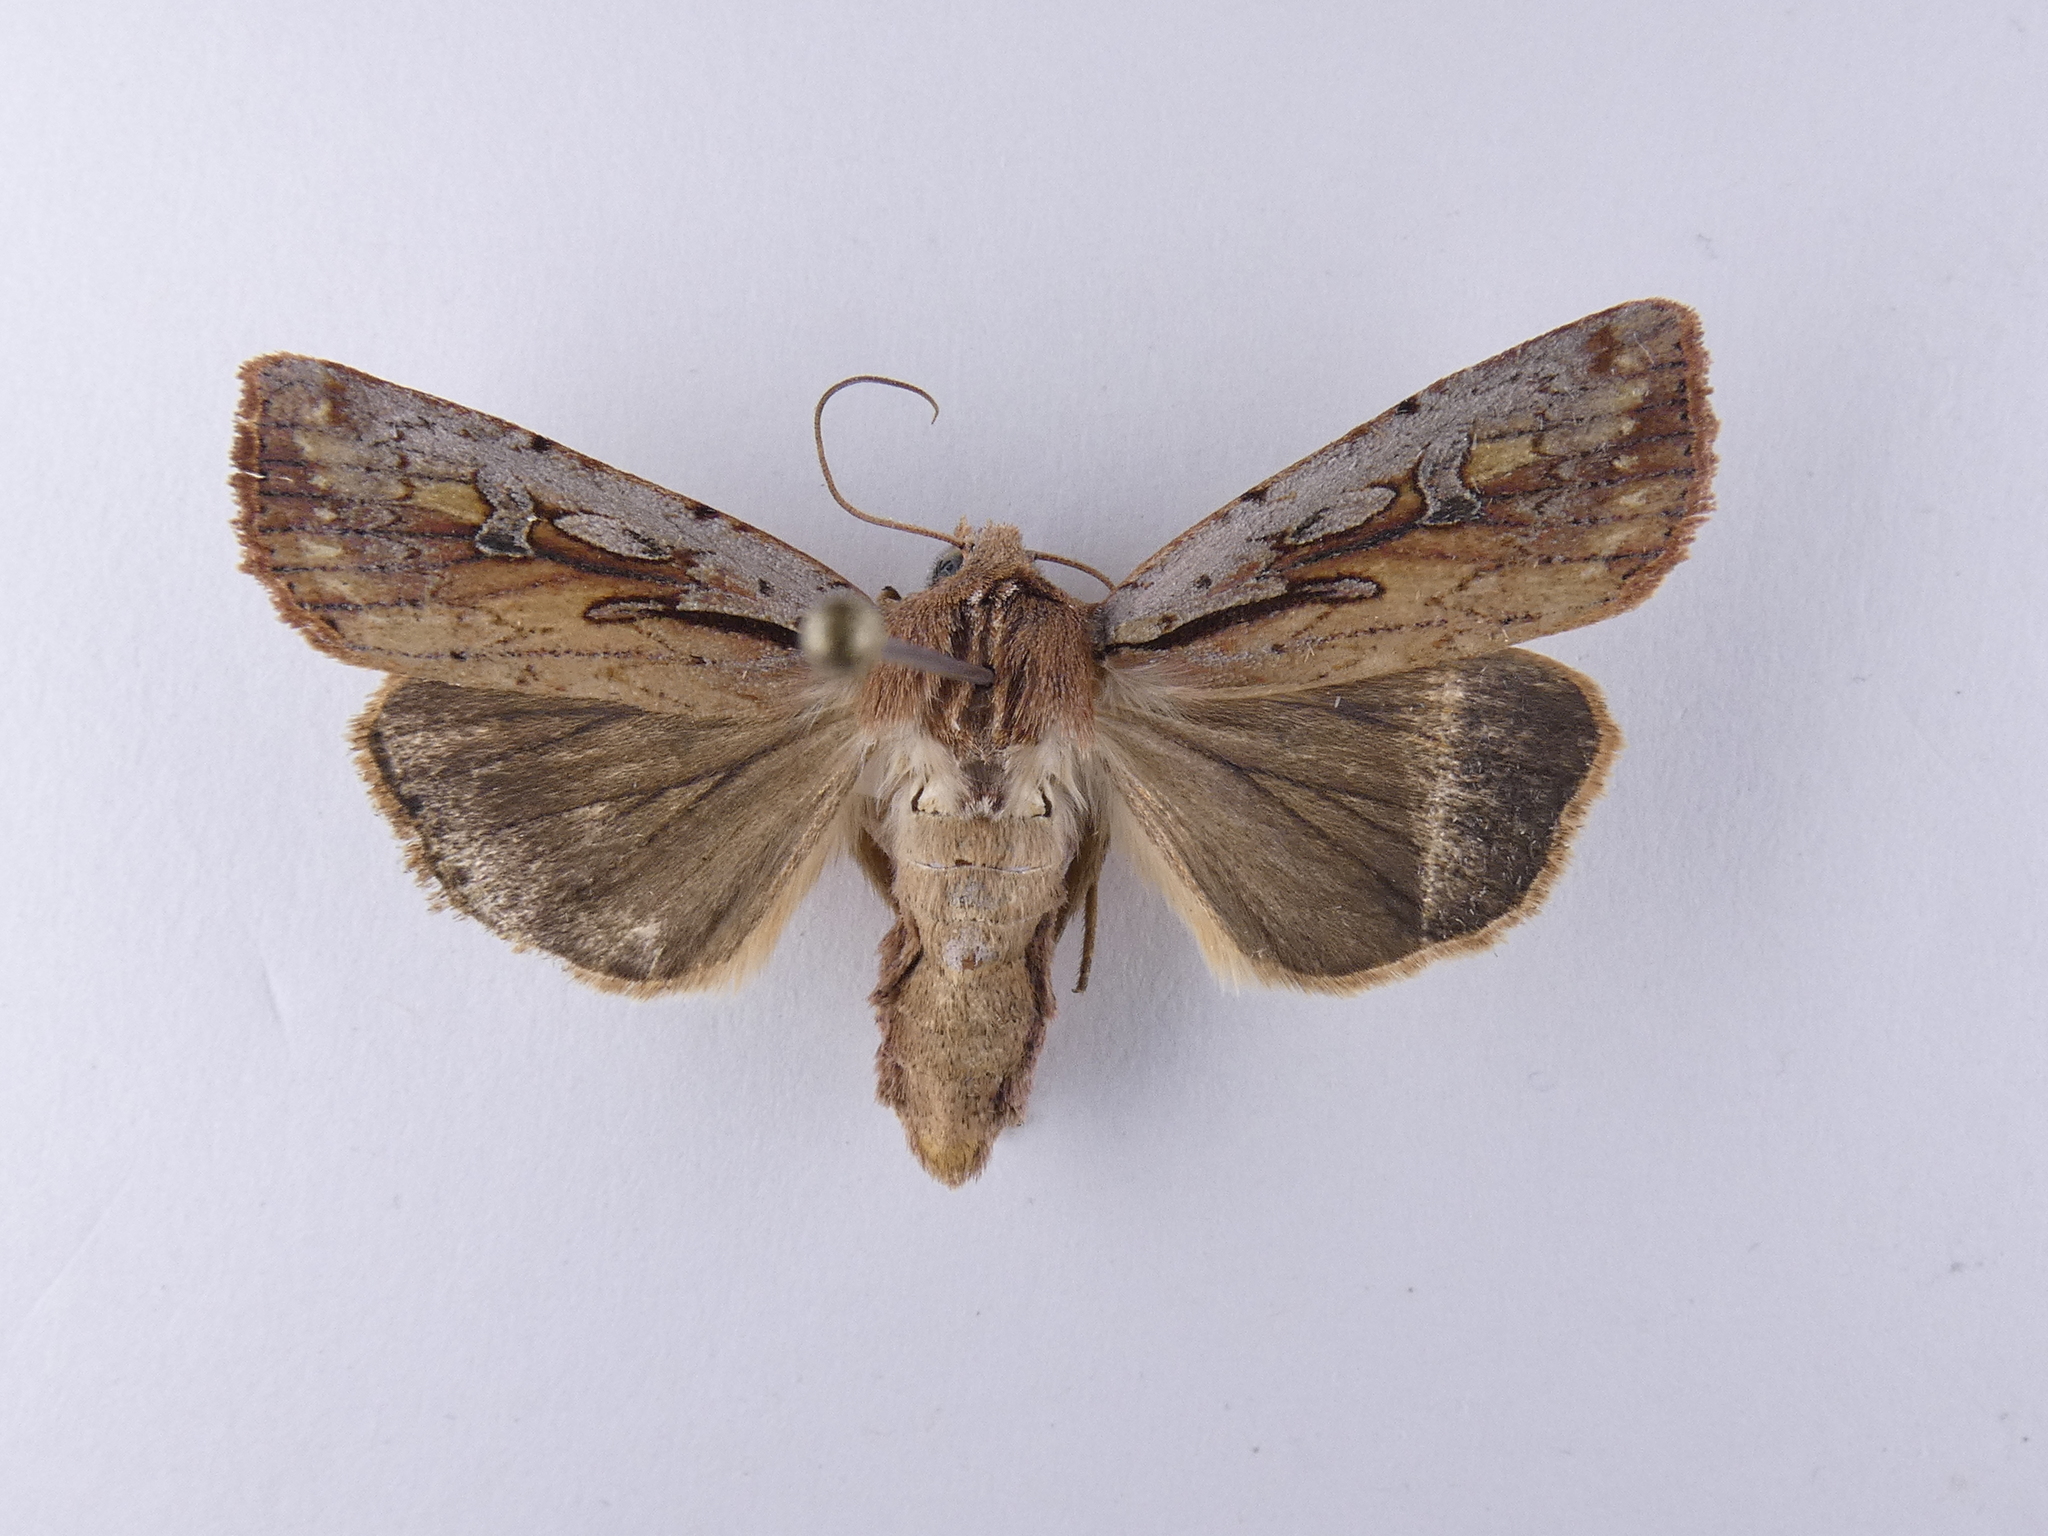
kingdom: Animalia
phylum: Arthropoda
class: Insecta
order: Lepidoptera
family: Noctuidae
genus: Ichneutica
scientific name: Ichneutica atristriga
